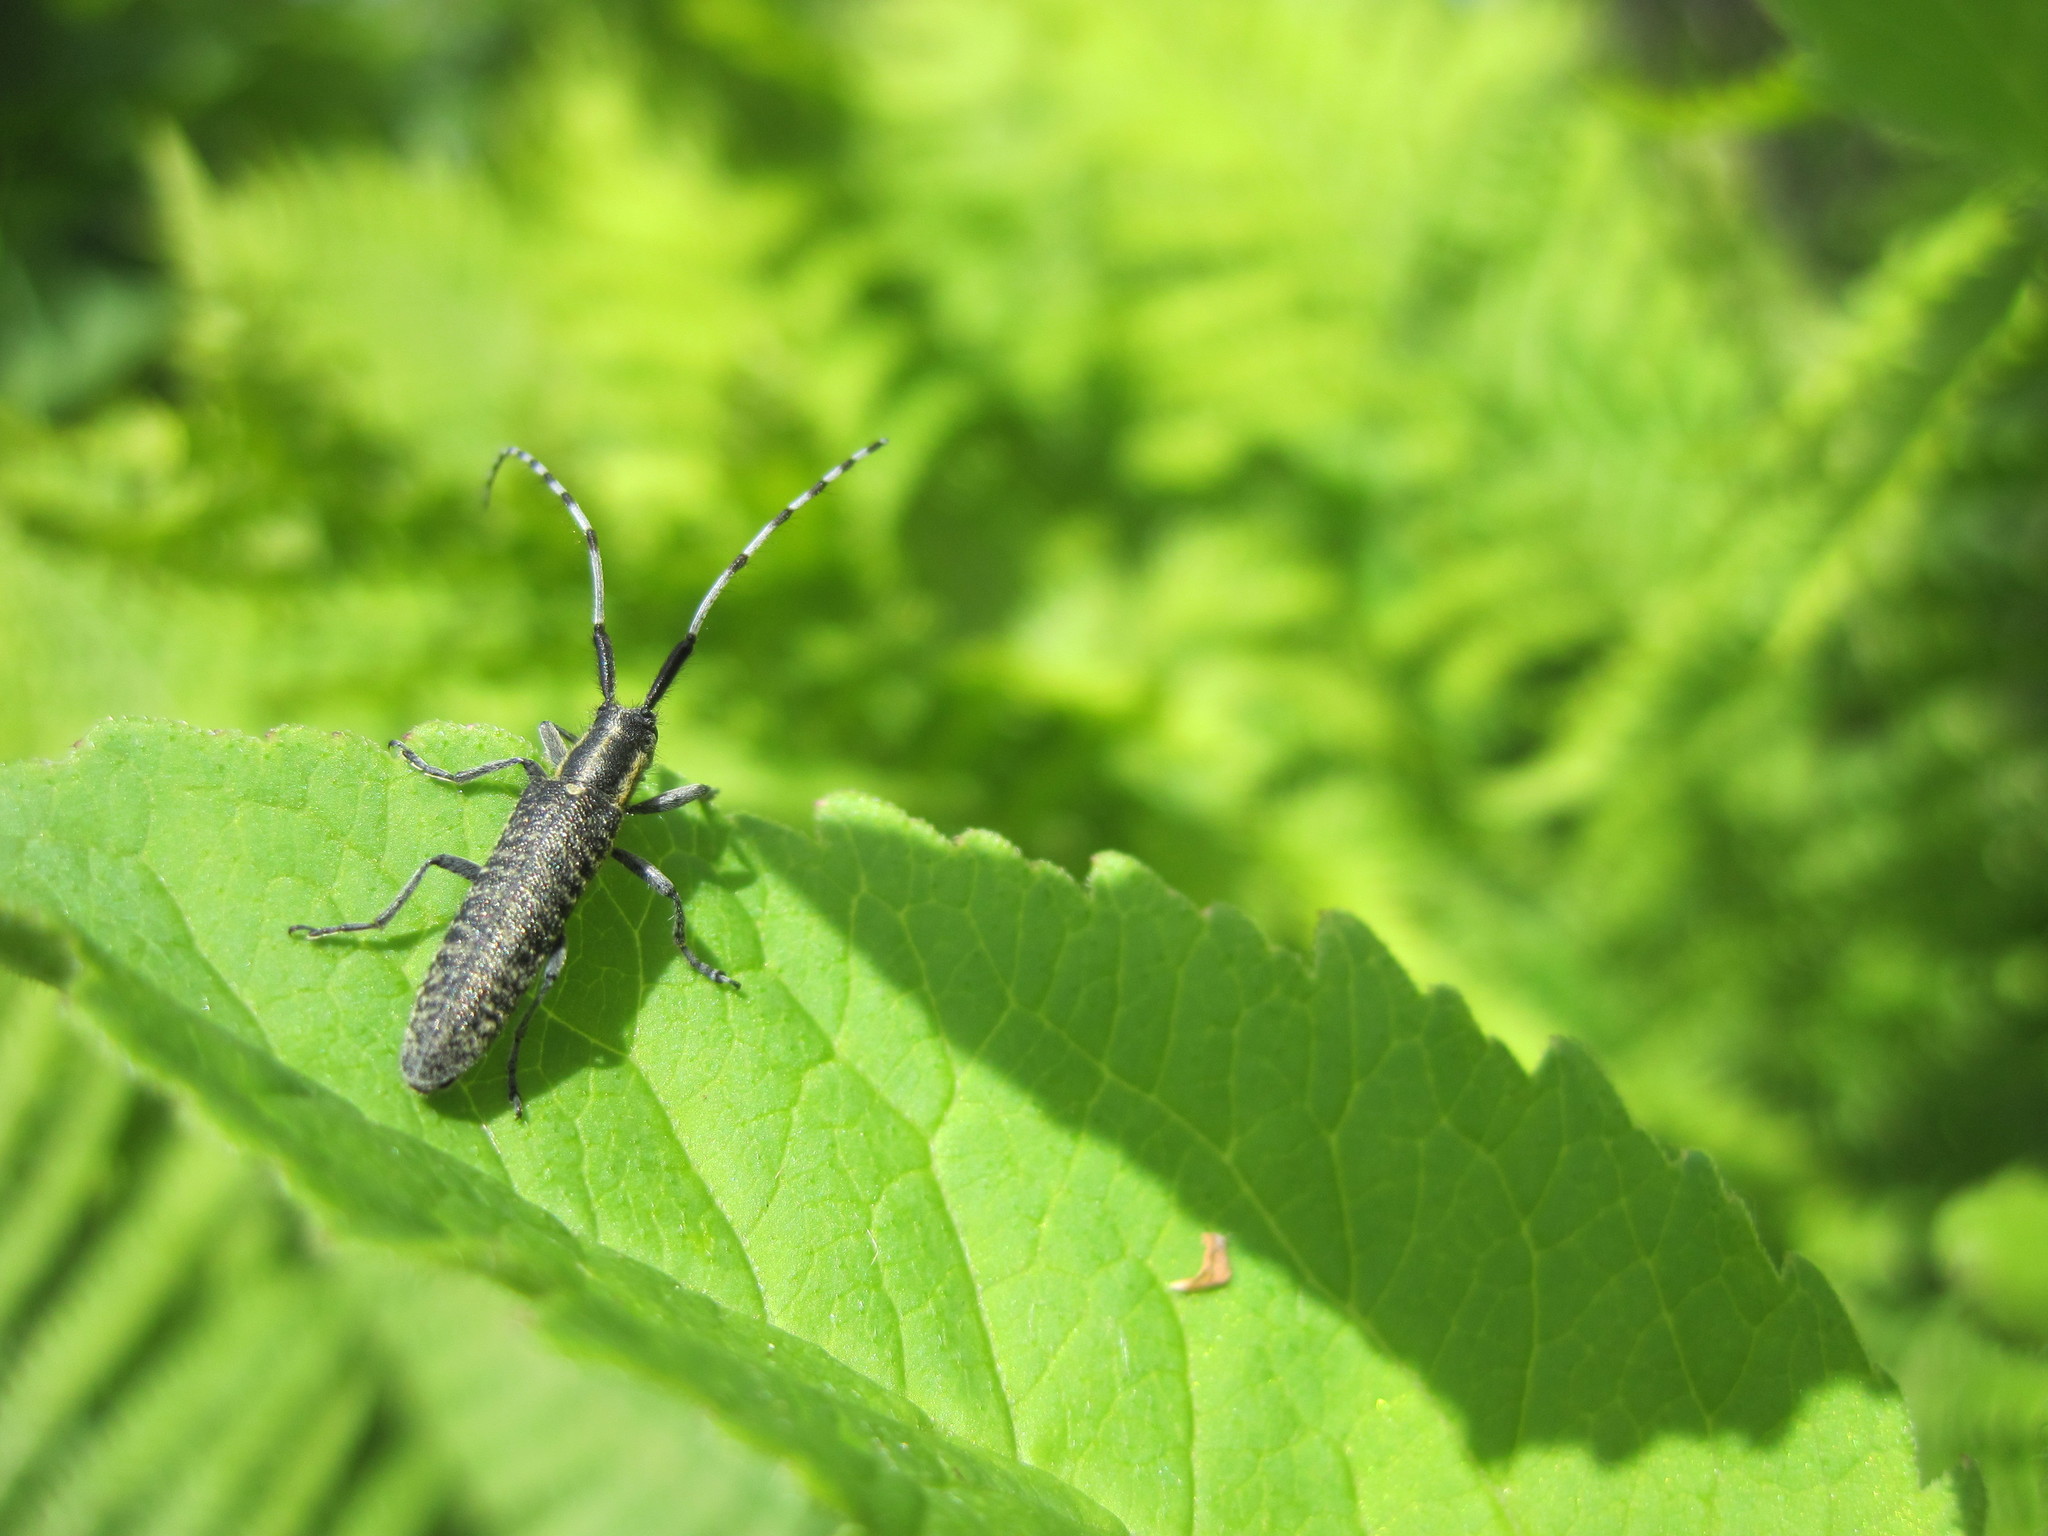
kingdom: Animalia
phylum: Arthropoda
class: Insecta
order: Coleoptera
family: Cerambycidae
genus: Agapanthia
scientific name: Agapanthia villosoviridescens
